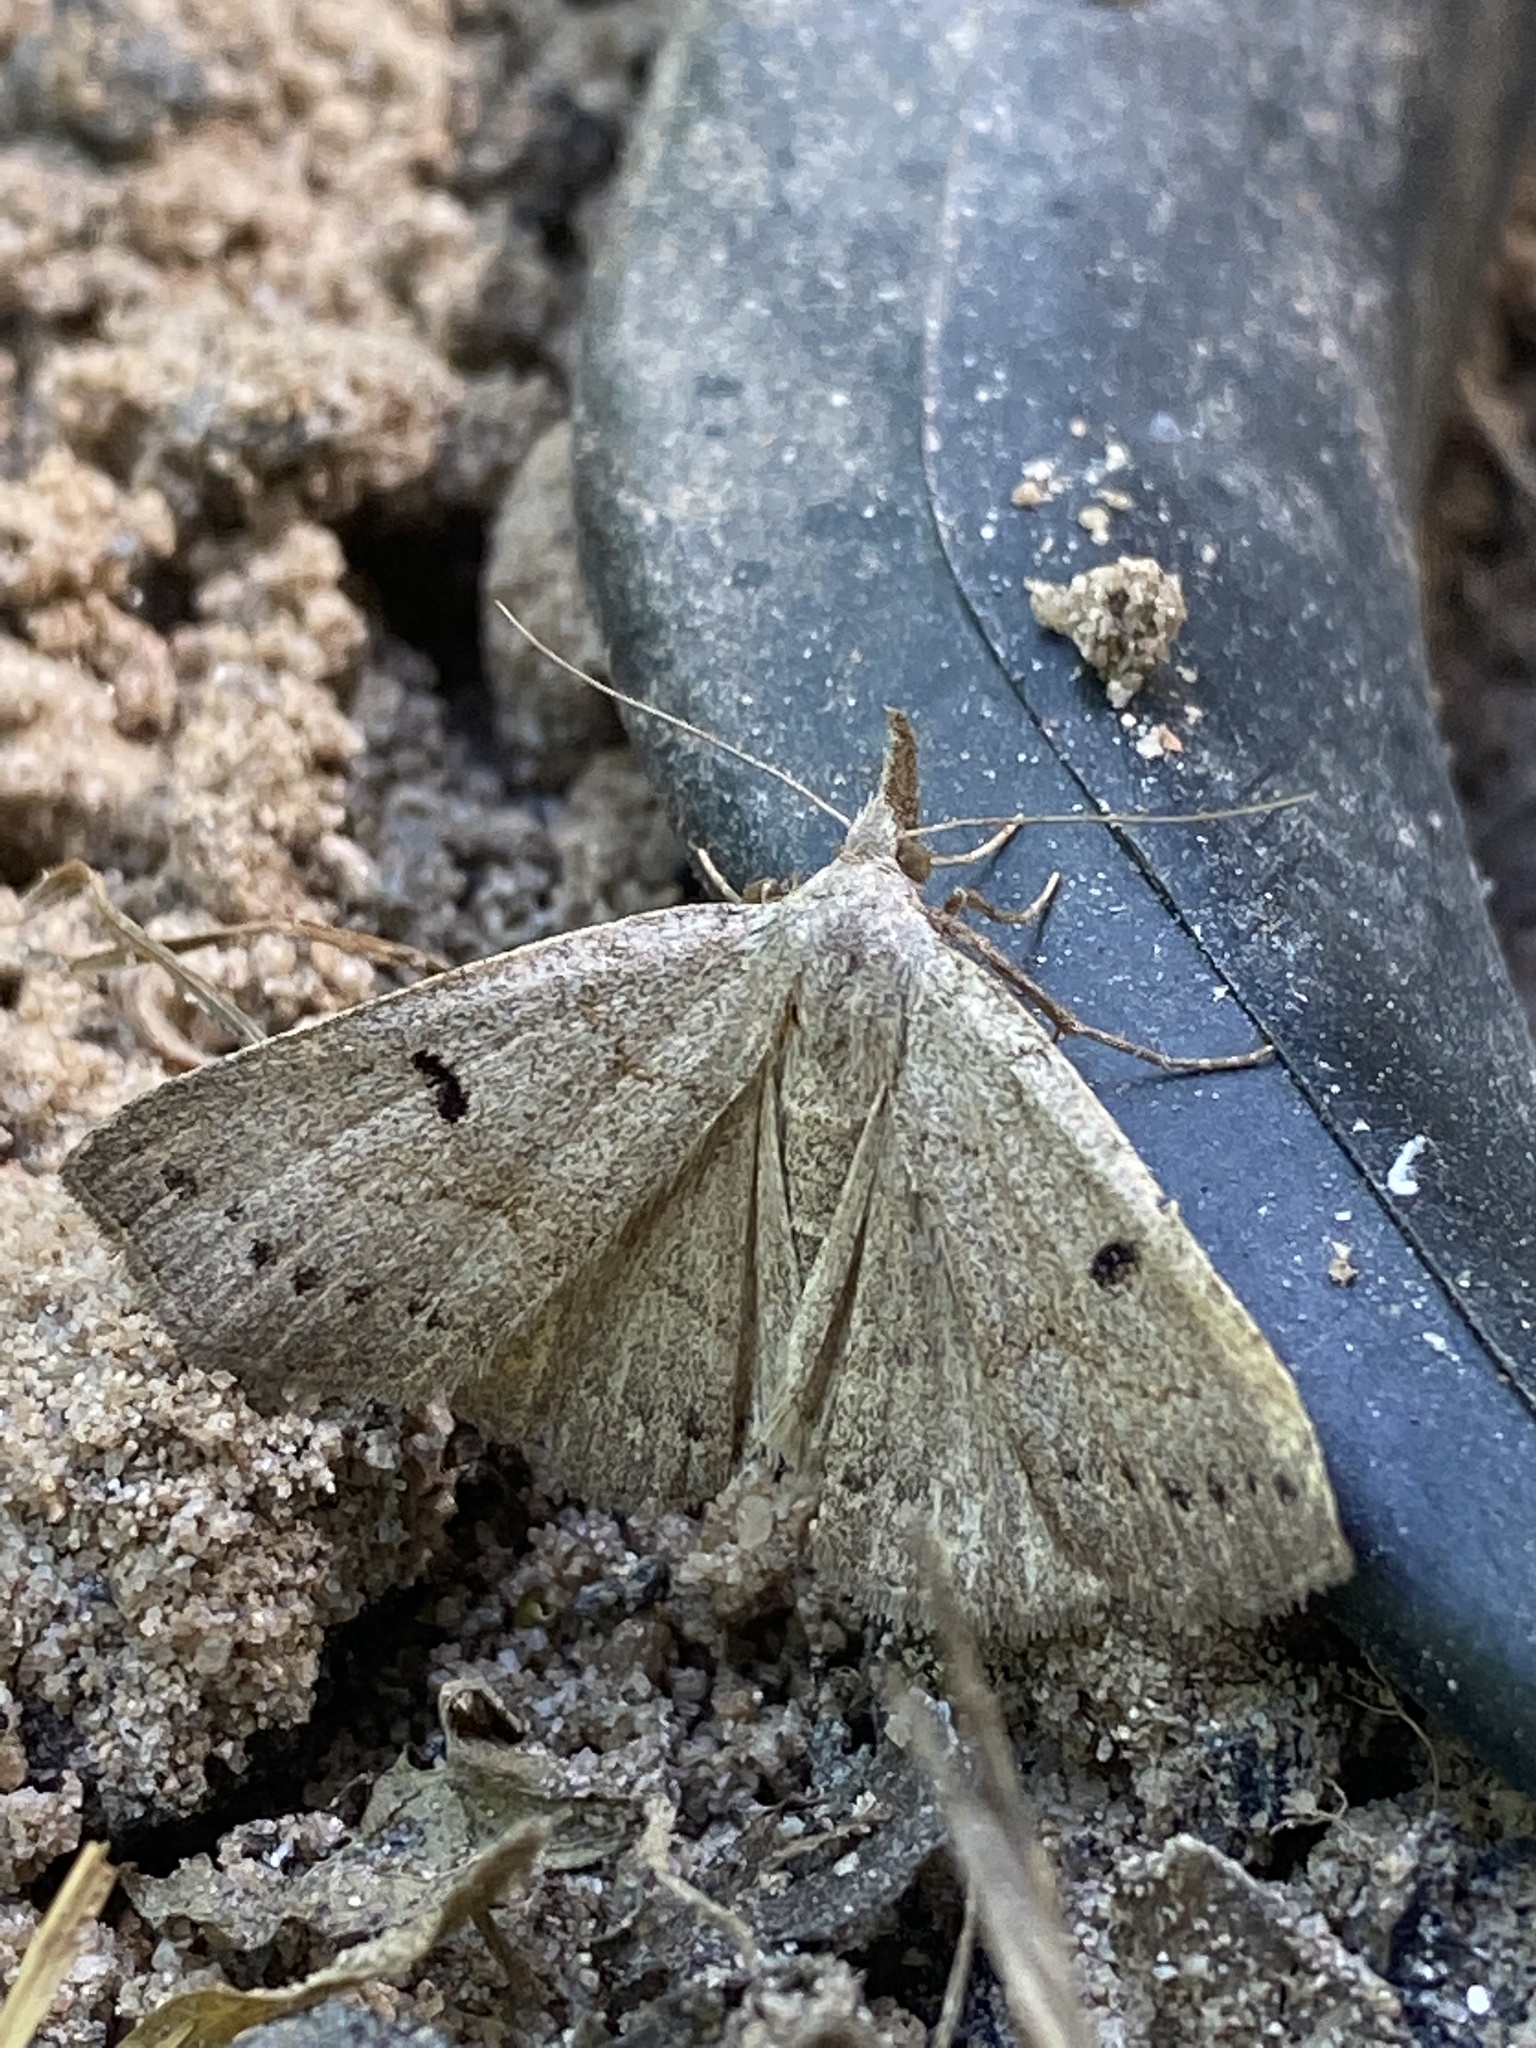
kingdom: Animalia
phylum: Arthropoda
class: Insecta
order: Lepidoptera
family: Erebidae
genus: Macrochilo
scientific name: Macrochilo morbidalis
